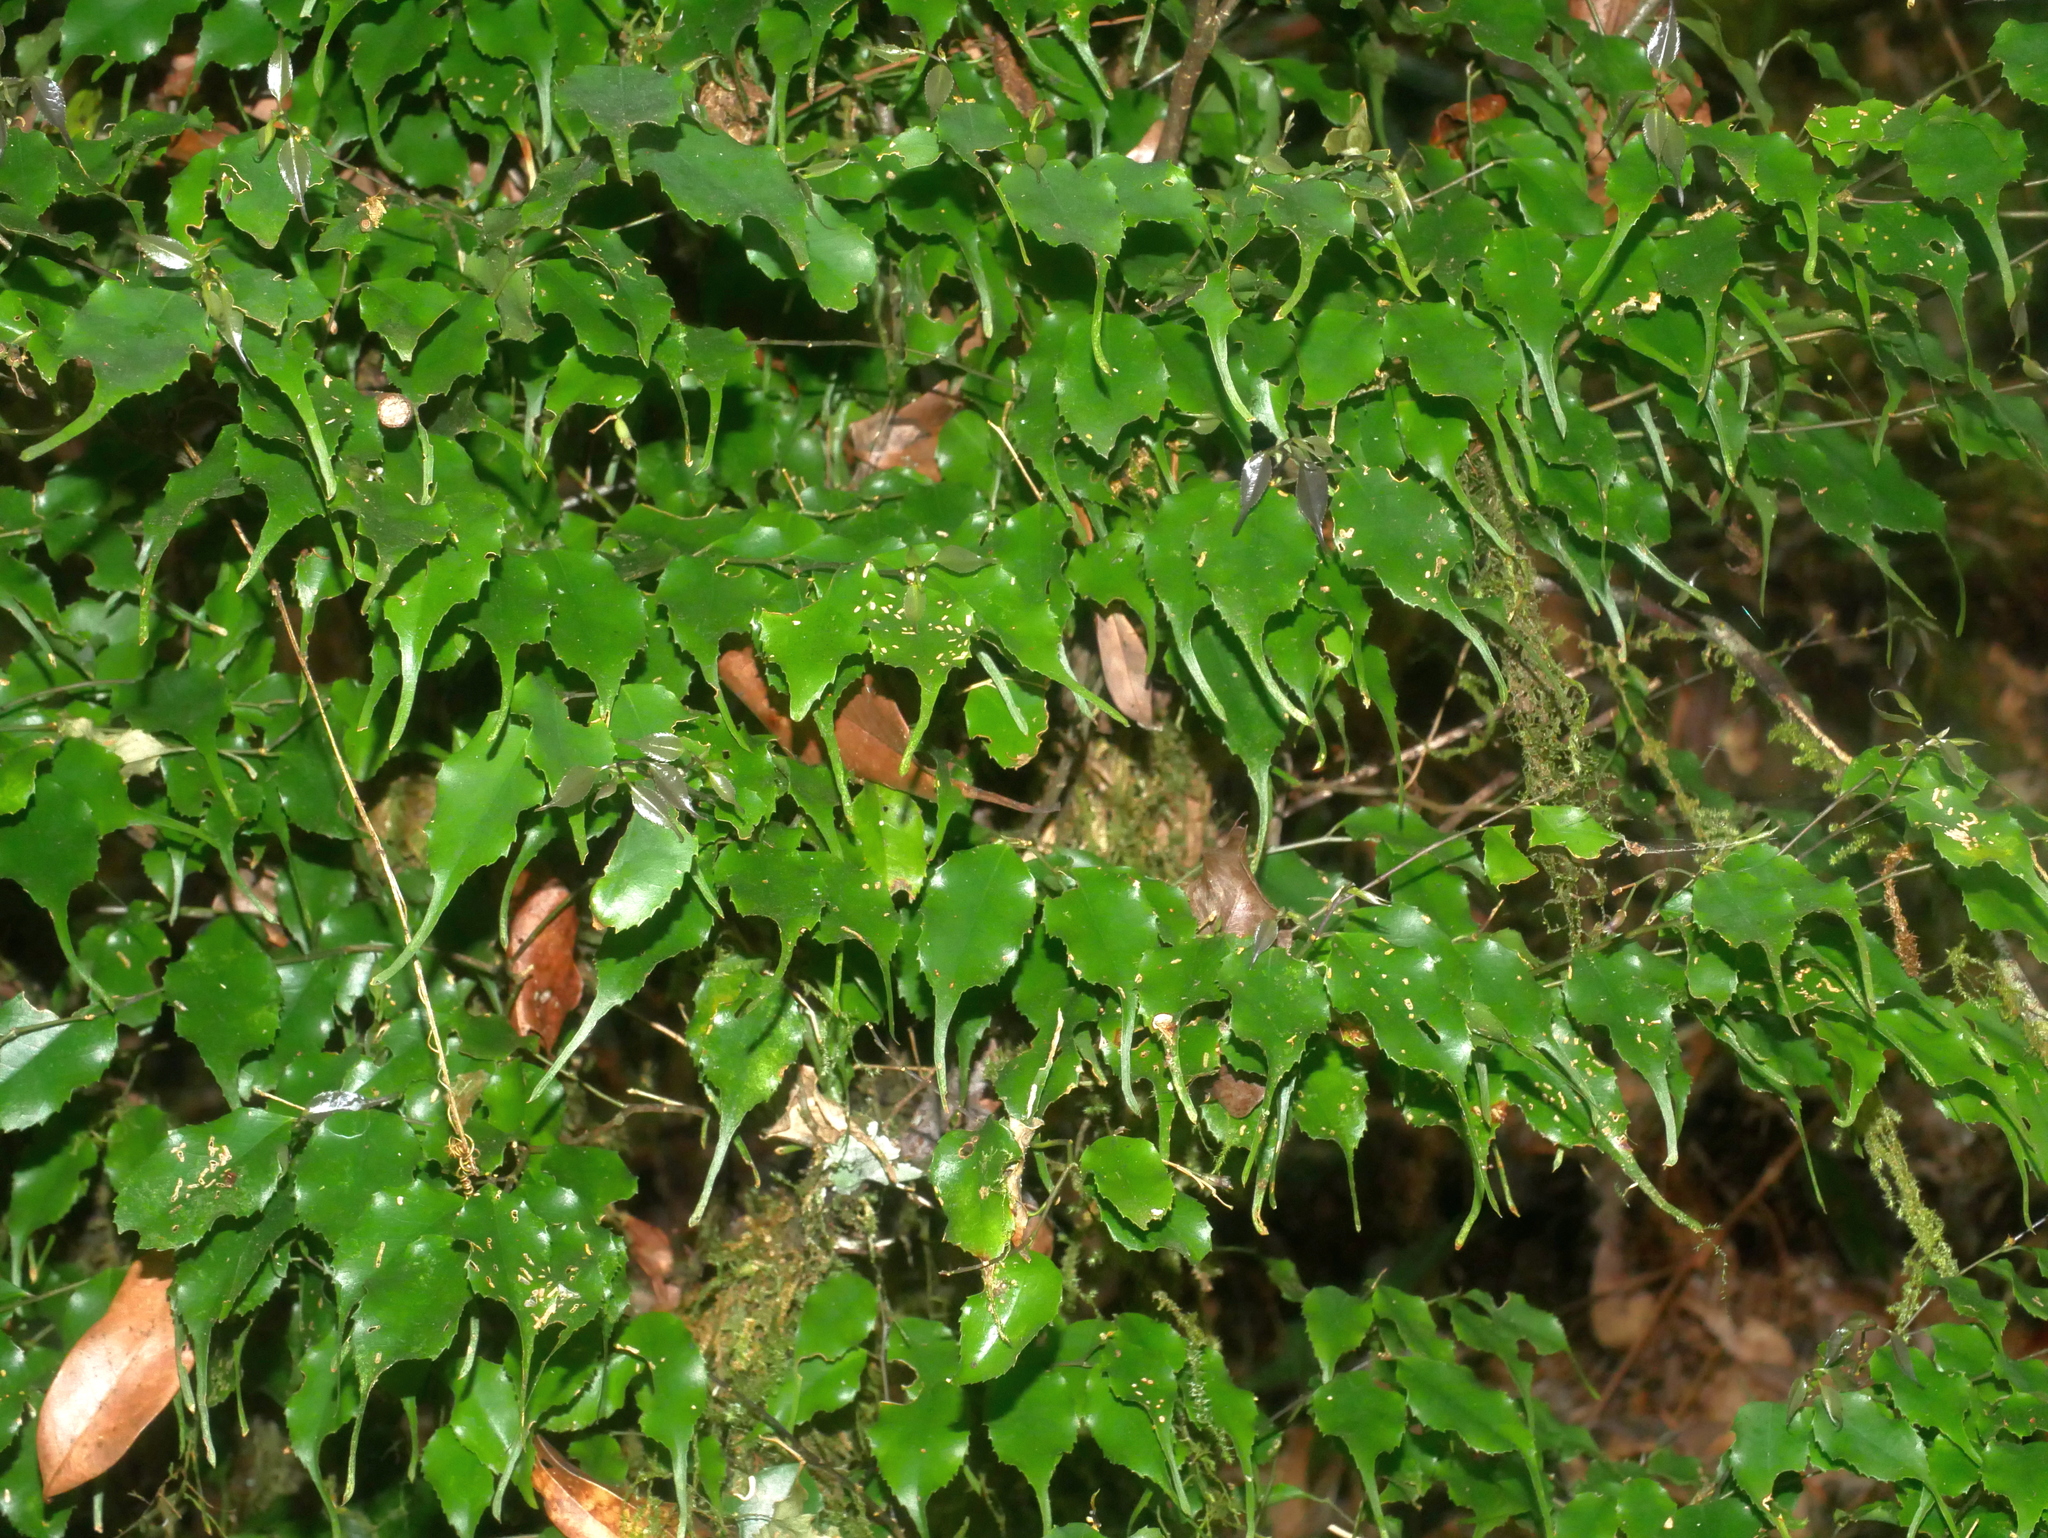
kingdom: Plantae
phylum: Tracheophyta
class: Magnoliopsida
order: Ericales
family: Symplocaceae
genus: Symplocos
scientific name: Symplocos sumuntia
